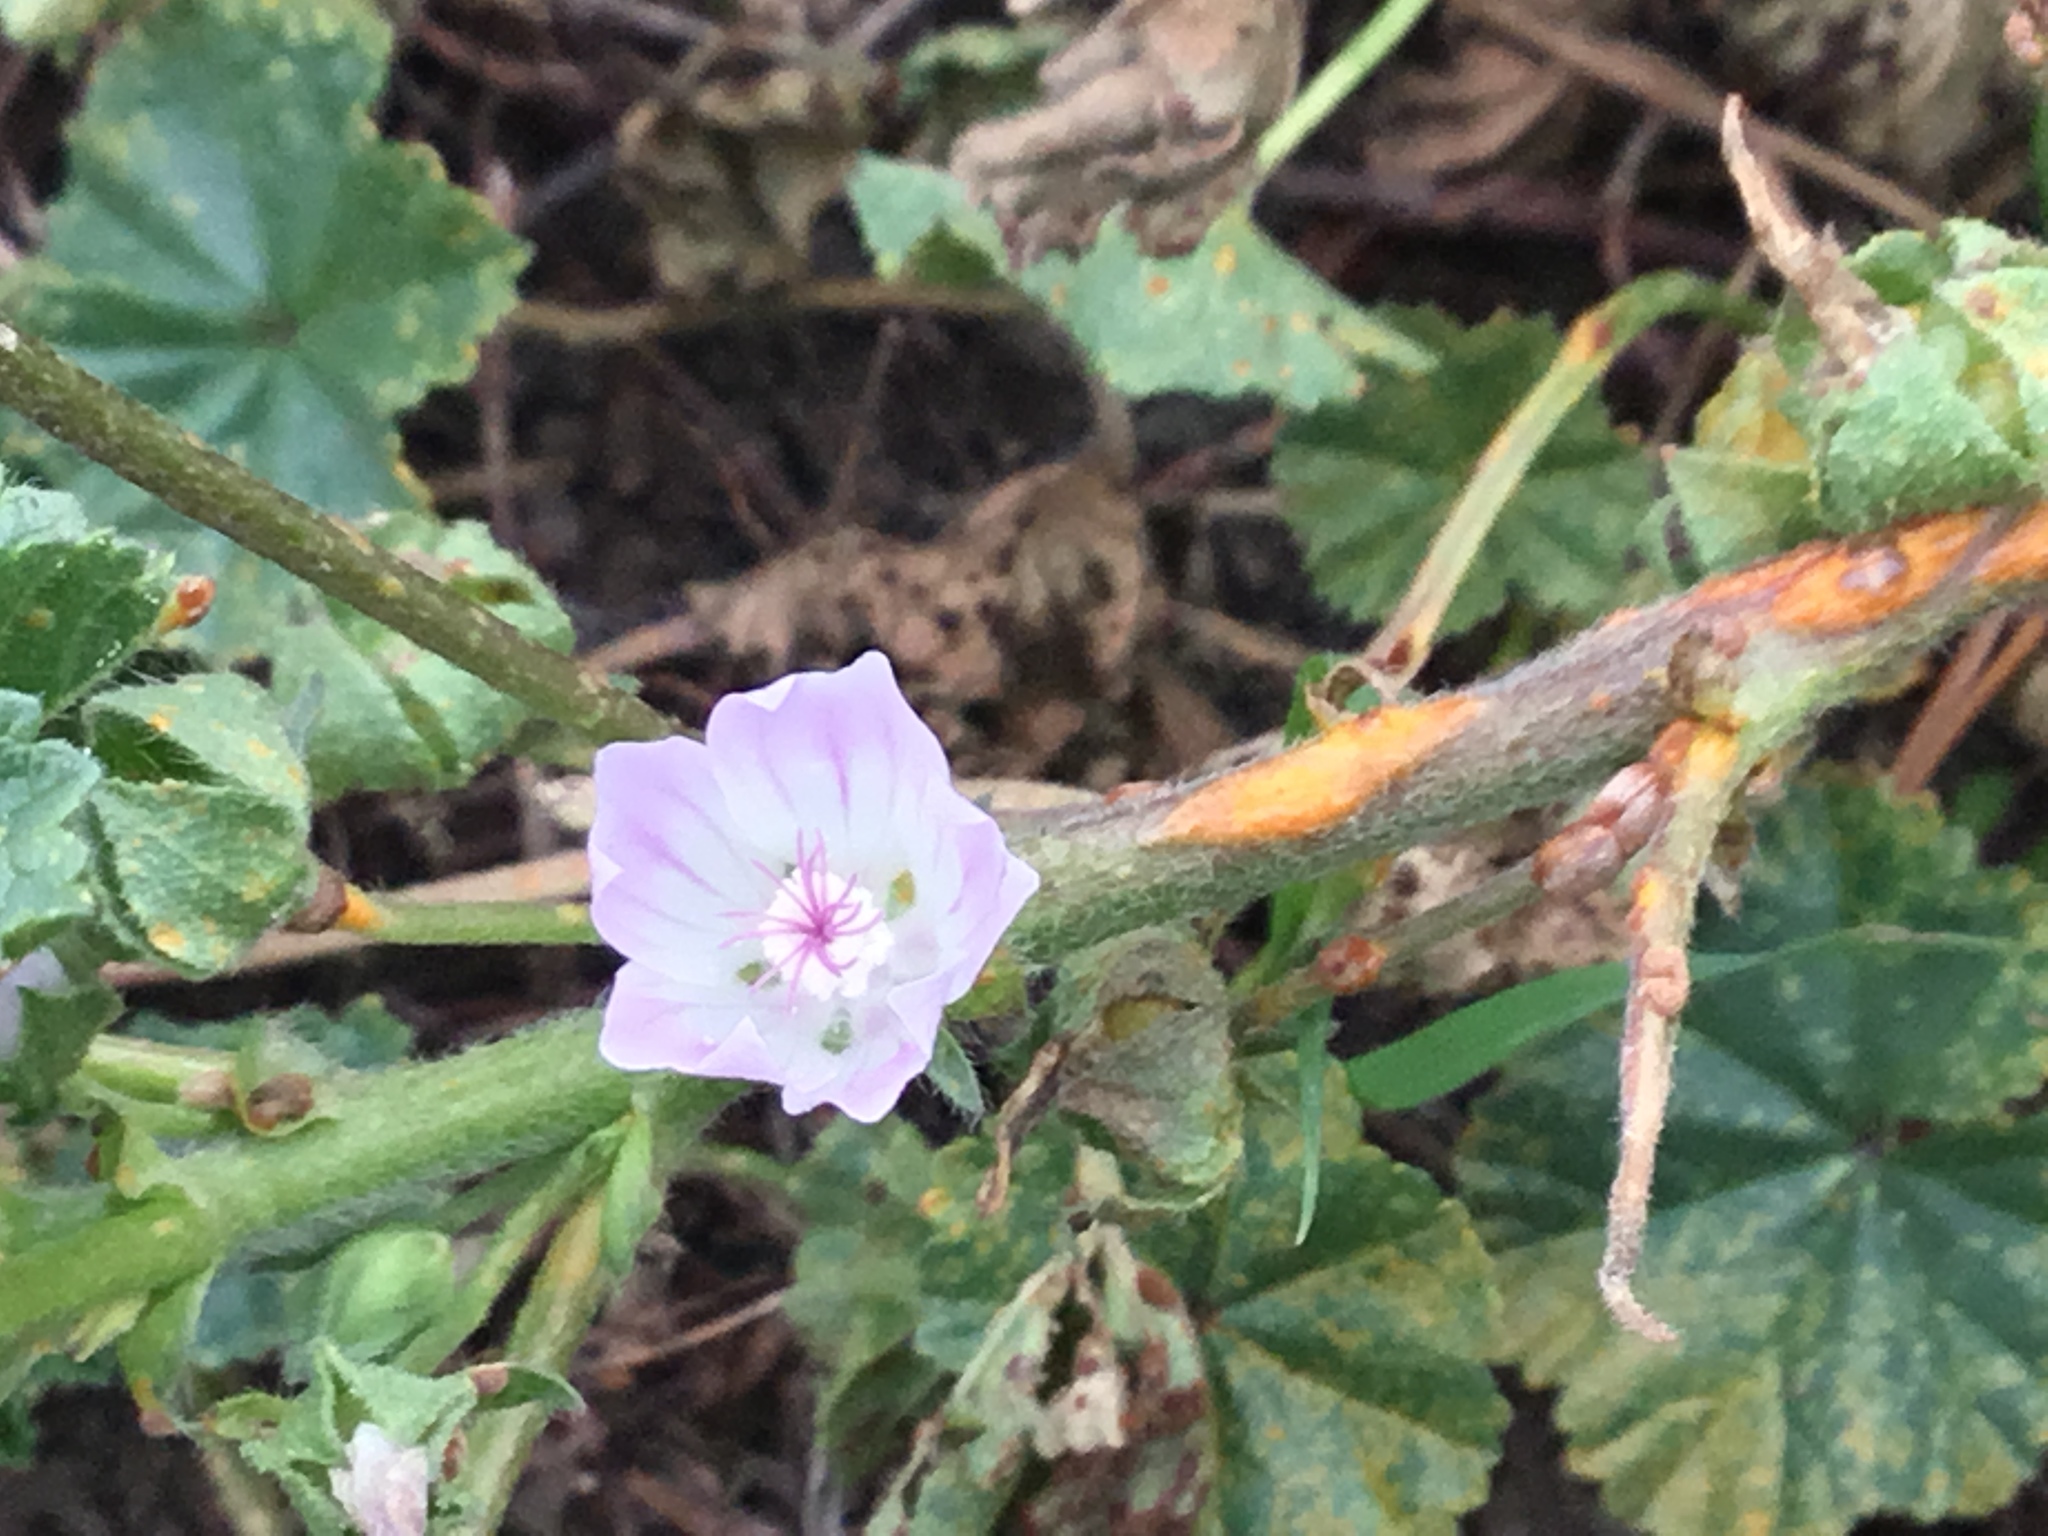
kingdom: Plantae
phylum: Tracheophyta
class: Magnoliopsida
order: Malvales
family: Malvaceae
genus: Malva
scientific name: Malva neglecta
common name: Common mallow
